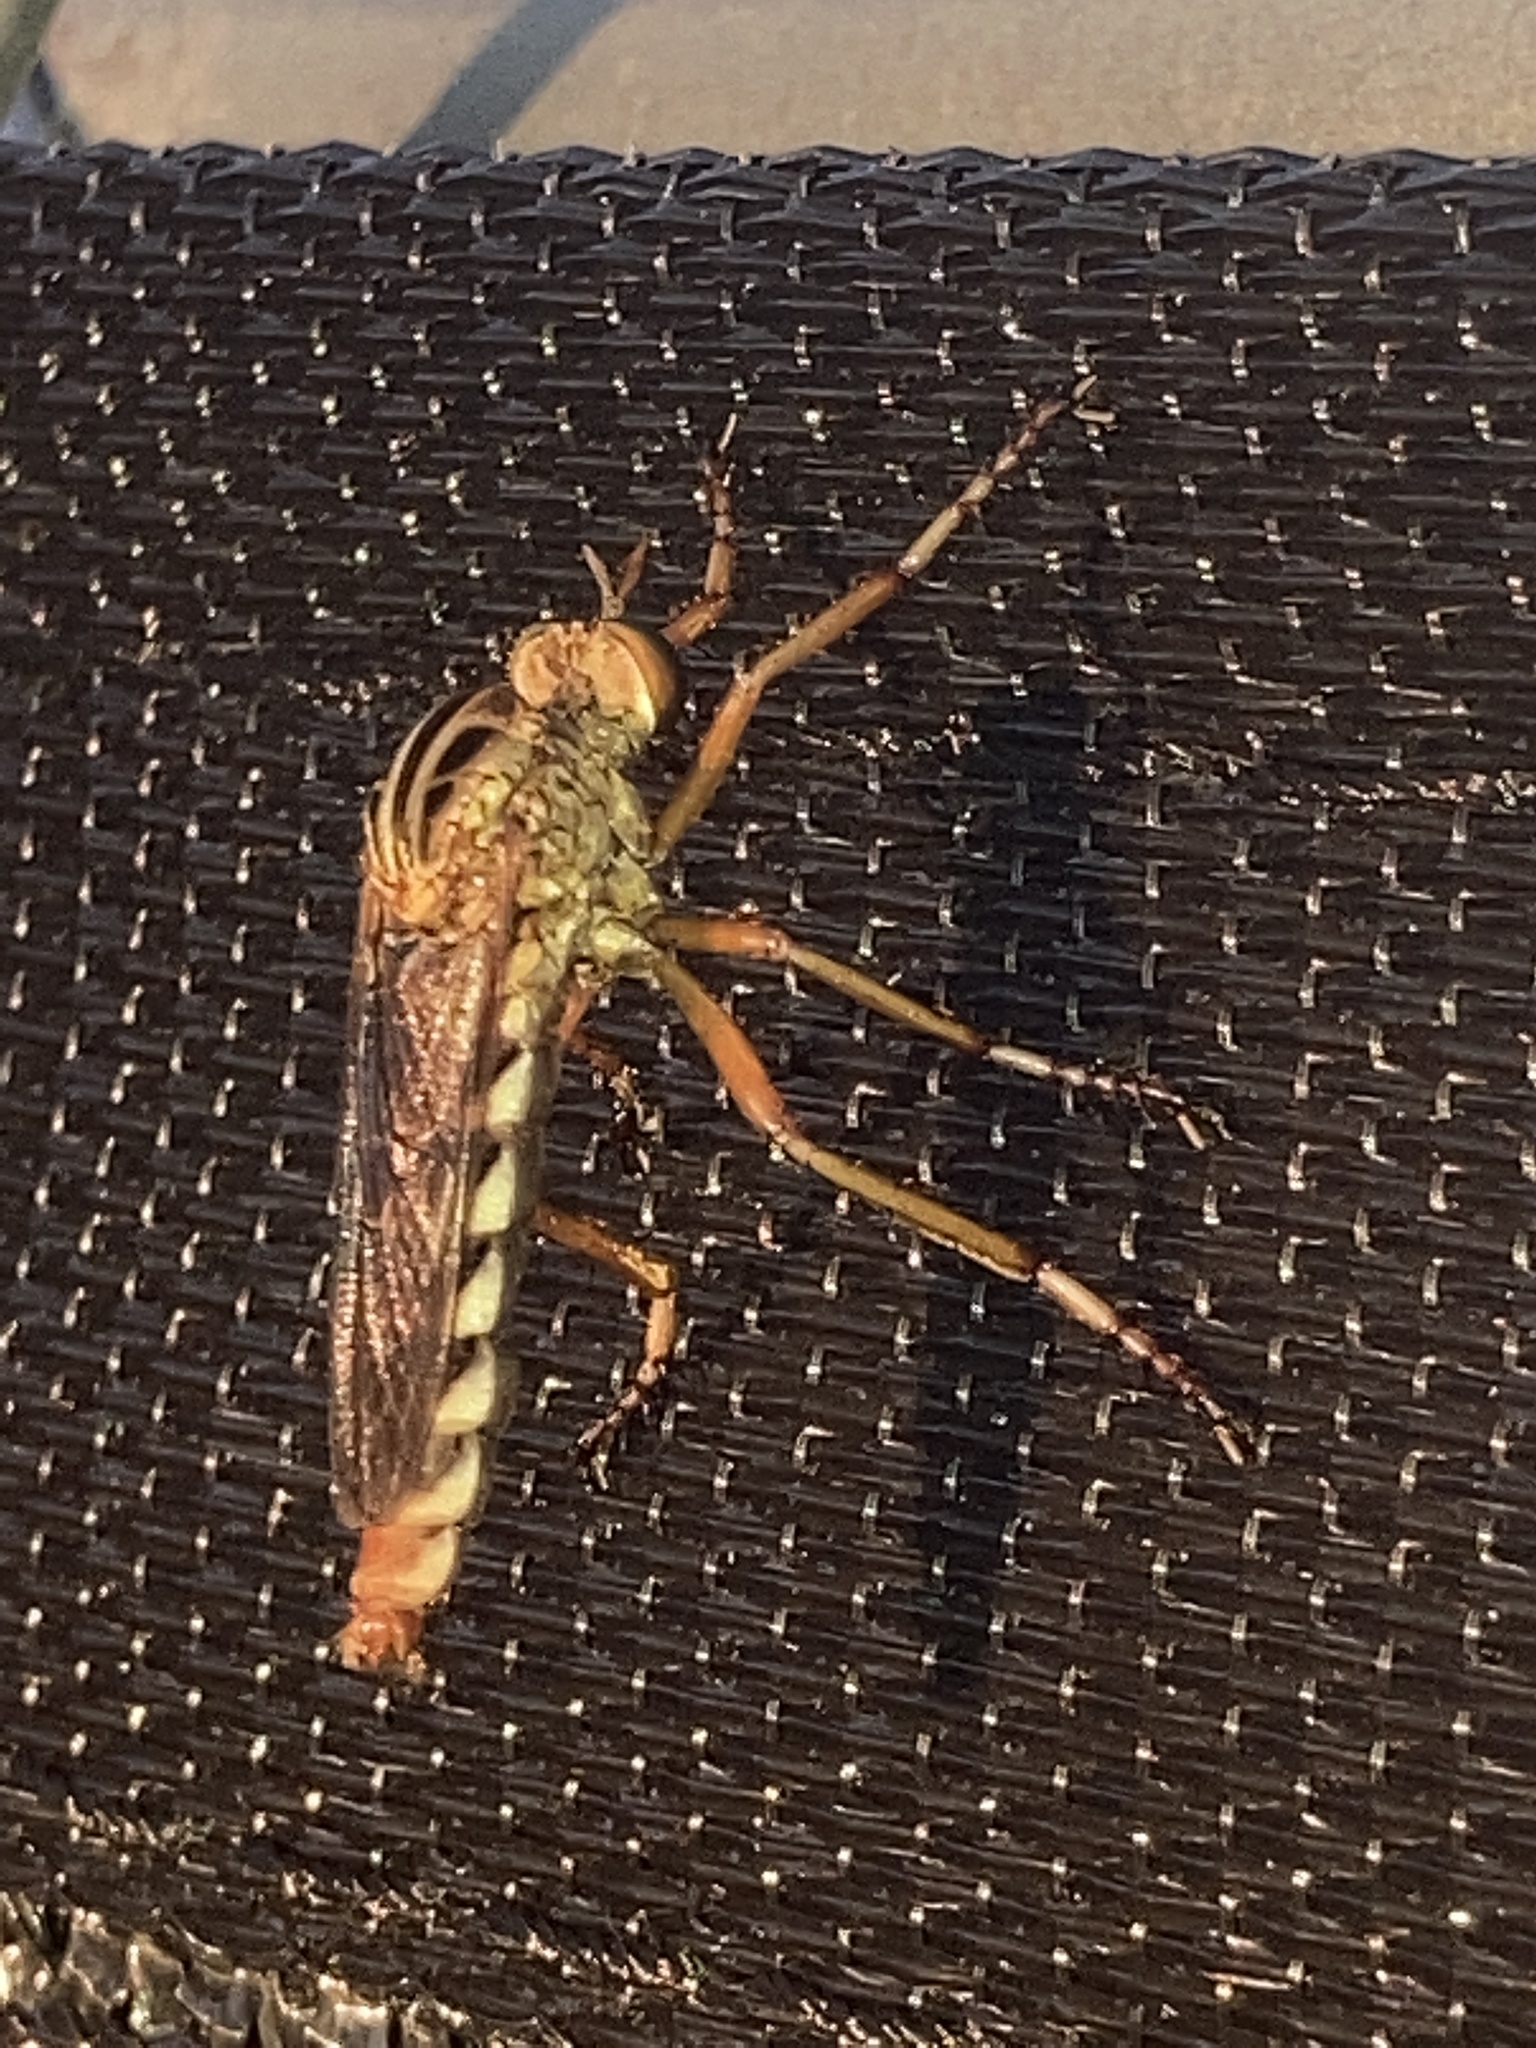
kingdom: Animalia
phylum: Arthropoda
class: Insecta
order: Diptera
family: Asilidae
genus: Diogmites
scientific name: Diogmites missouriensis
